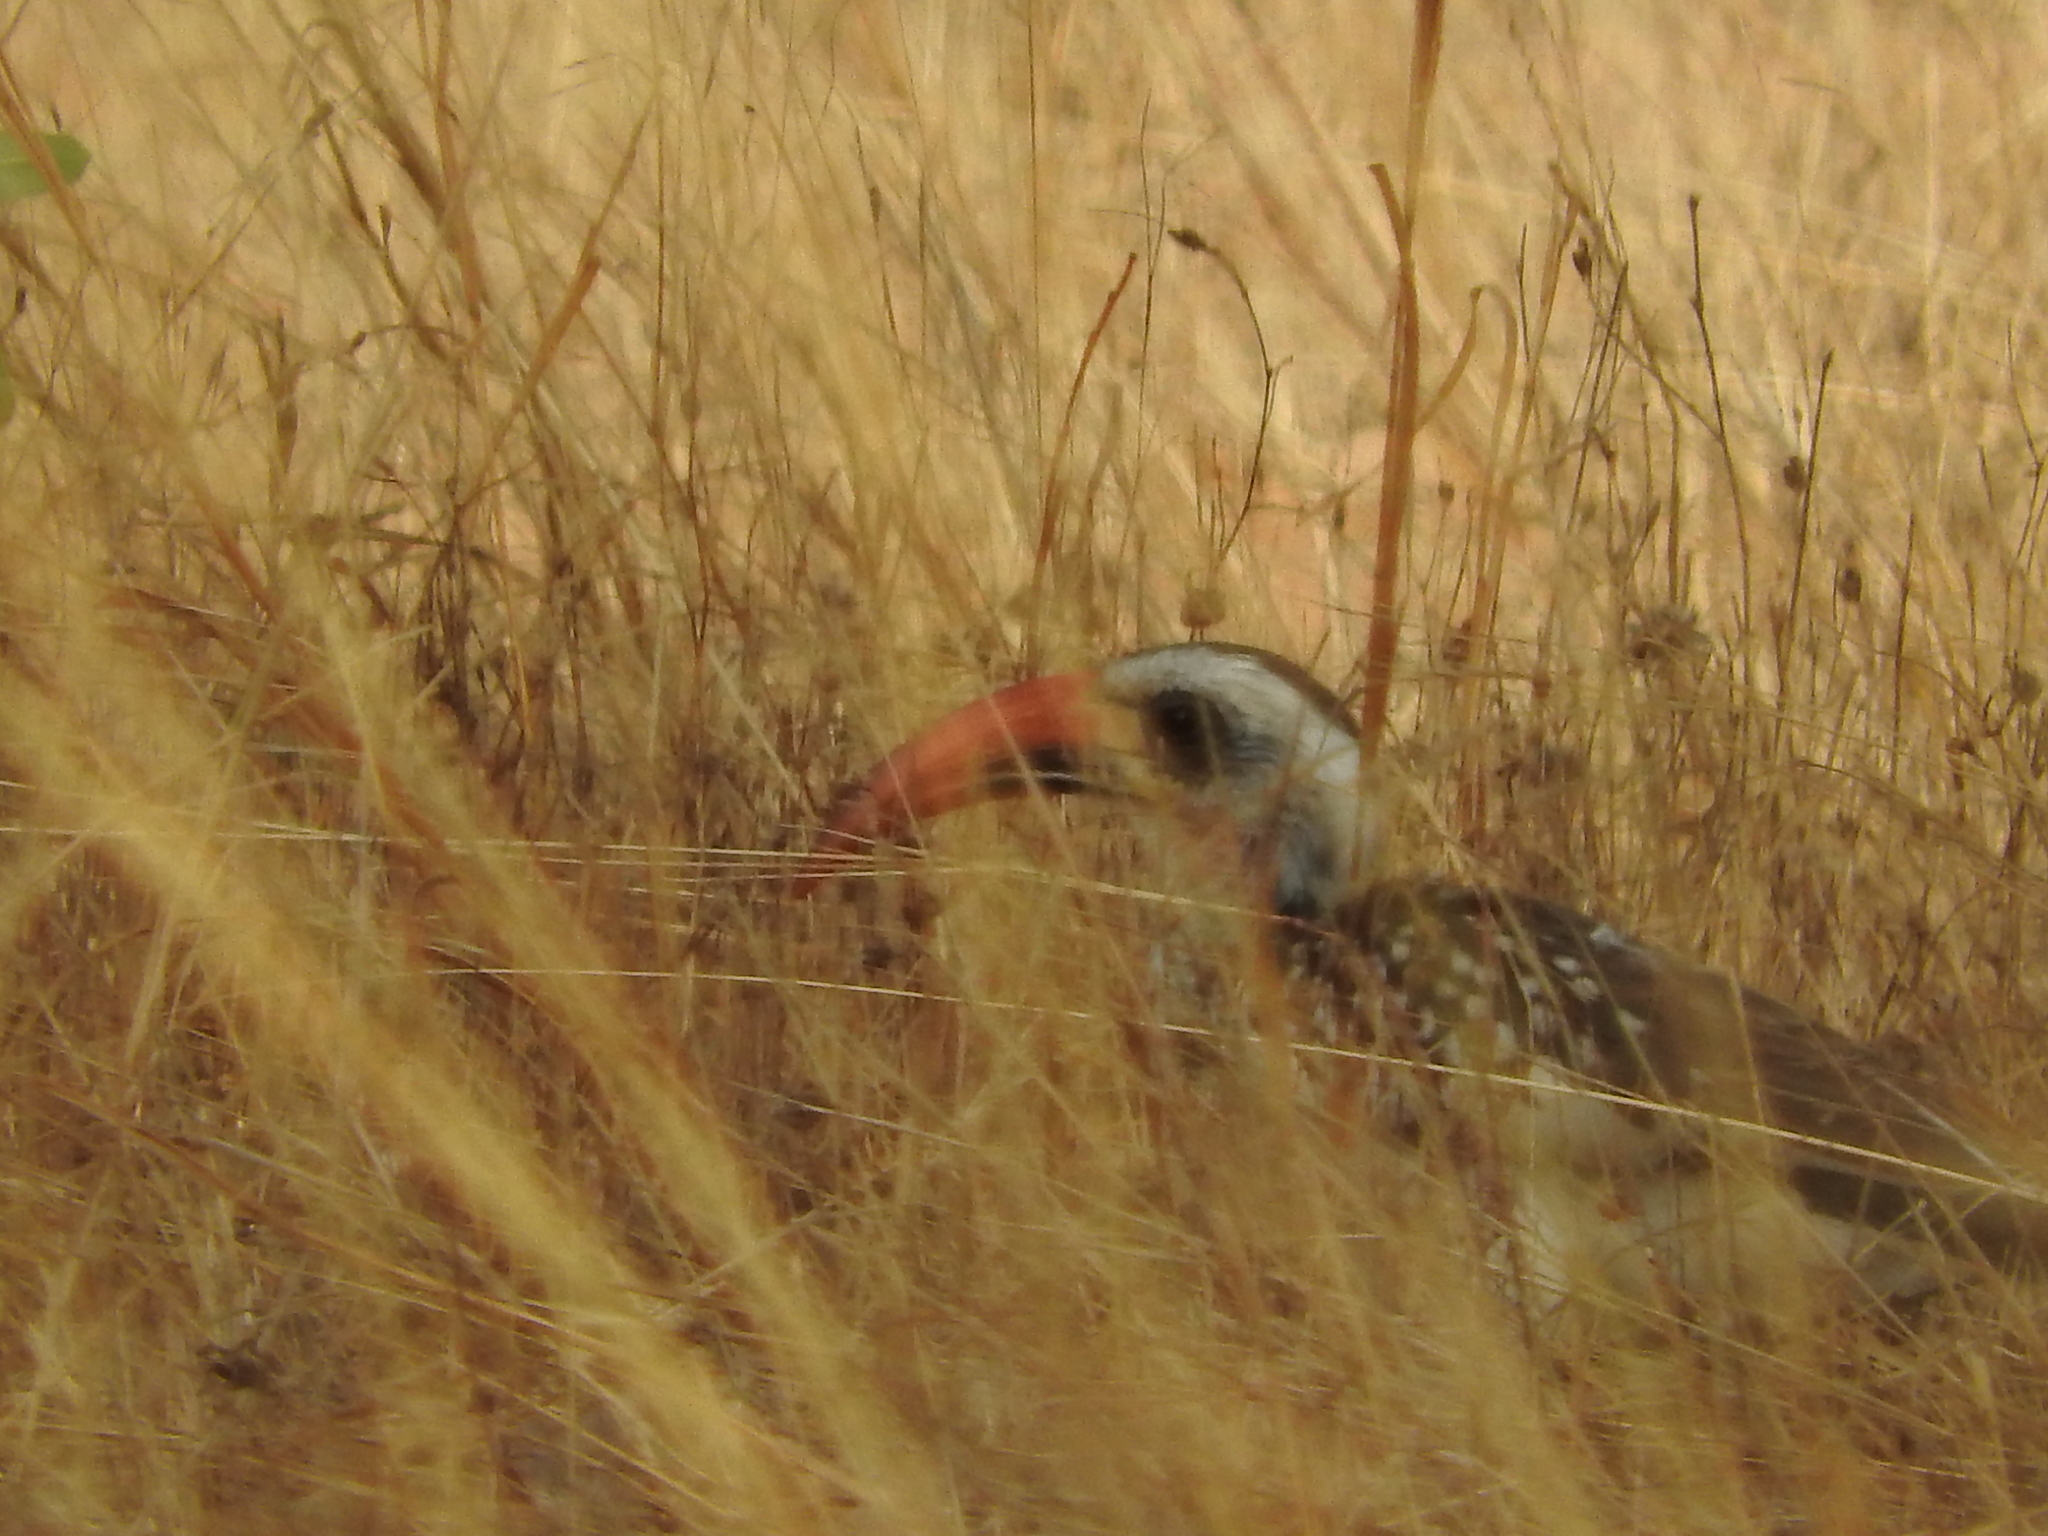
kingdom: Animalia
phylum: Chordata
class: Aves
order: Bucerotiformes
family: Bucerotidae
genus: Tockus
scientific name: Tockus kempi
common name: Western red-billed hornbill
